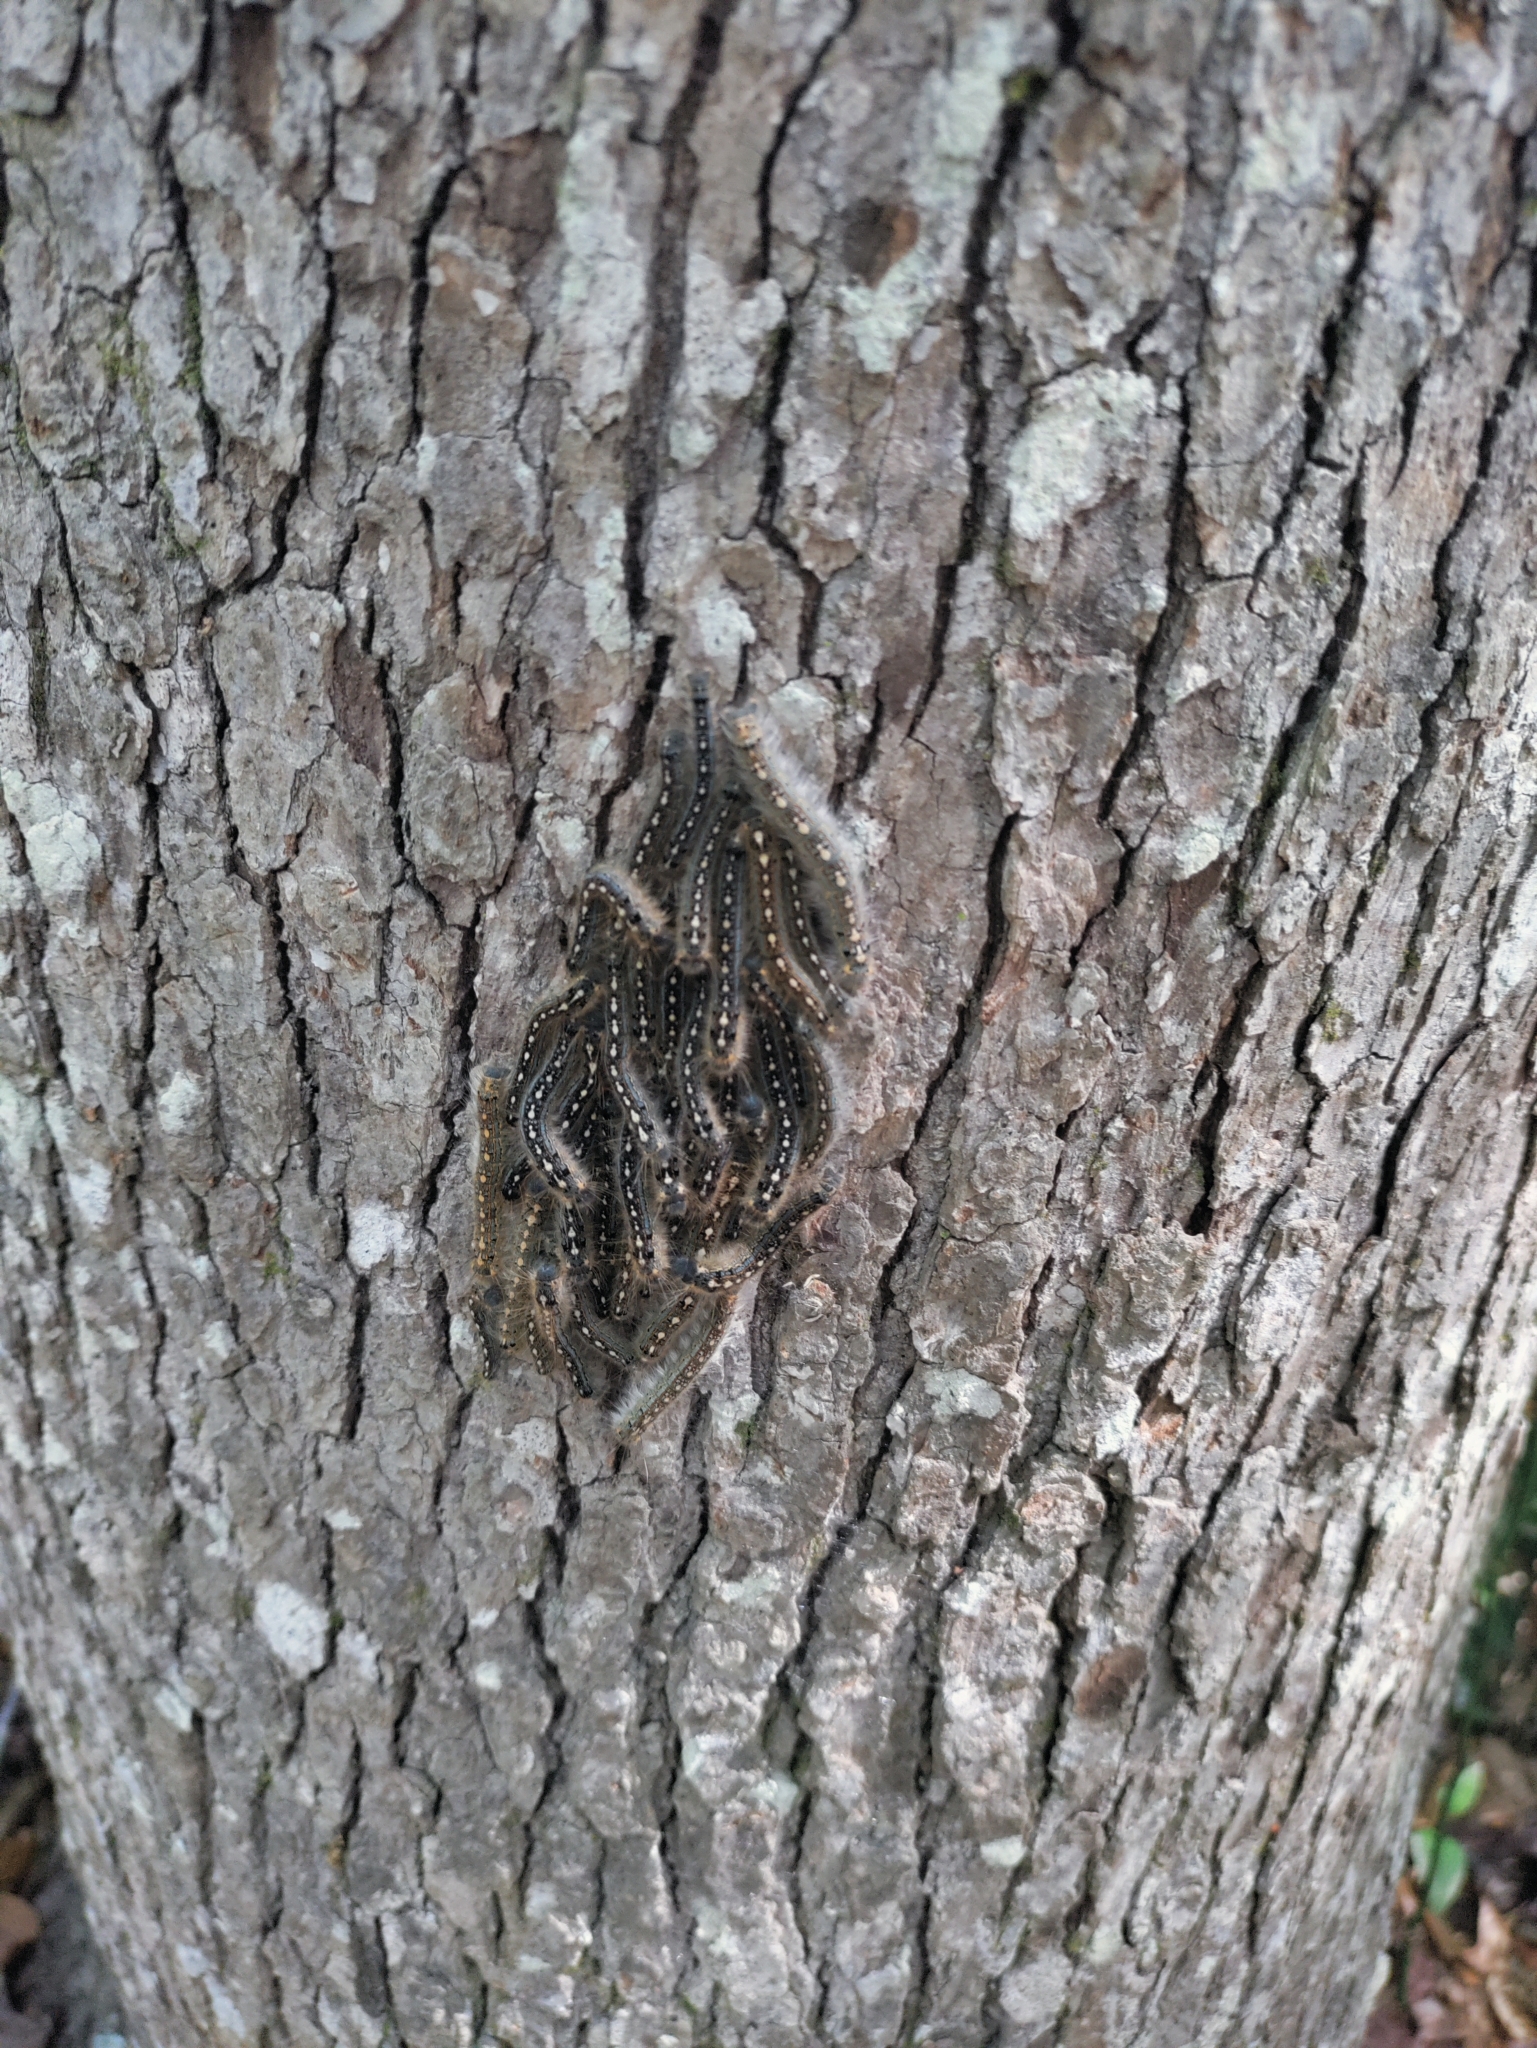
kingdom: Animalia
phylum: Arthropoda
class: Insecta
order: Lepidoptera
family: Lasiocampidae
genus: Malacosoma
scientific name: Malacosoma disstria
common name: Forest tent caterpillar
